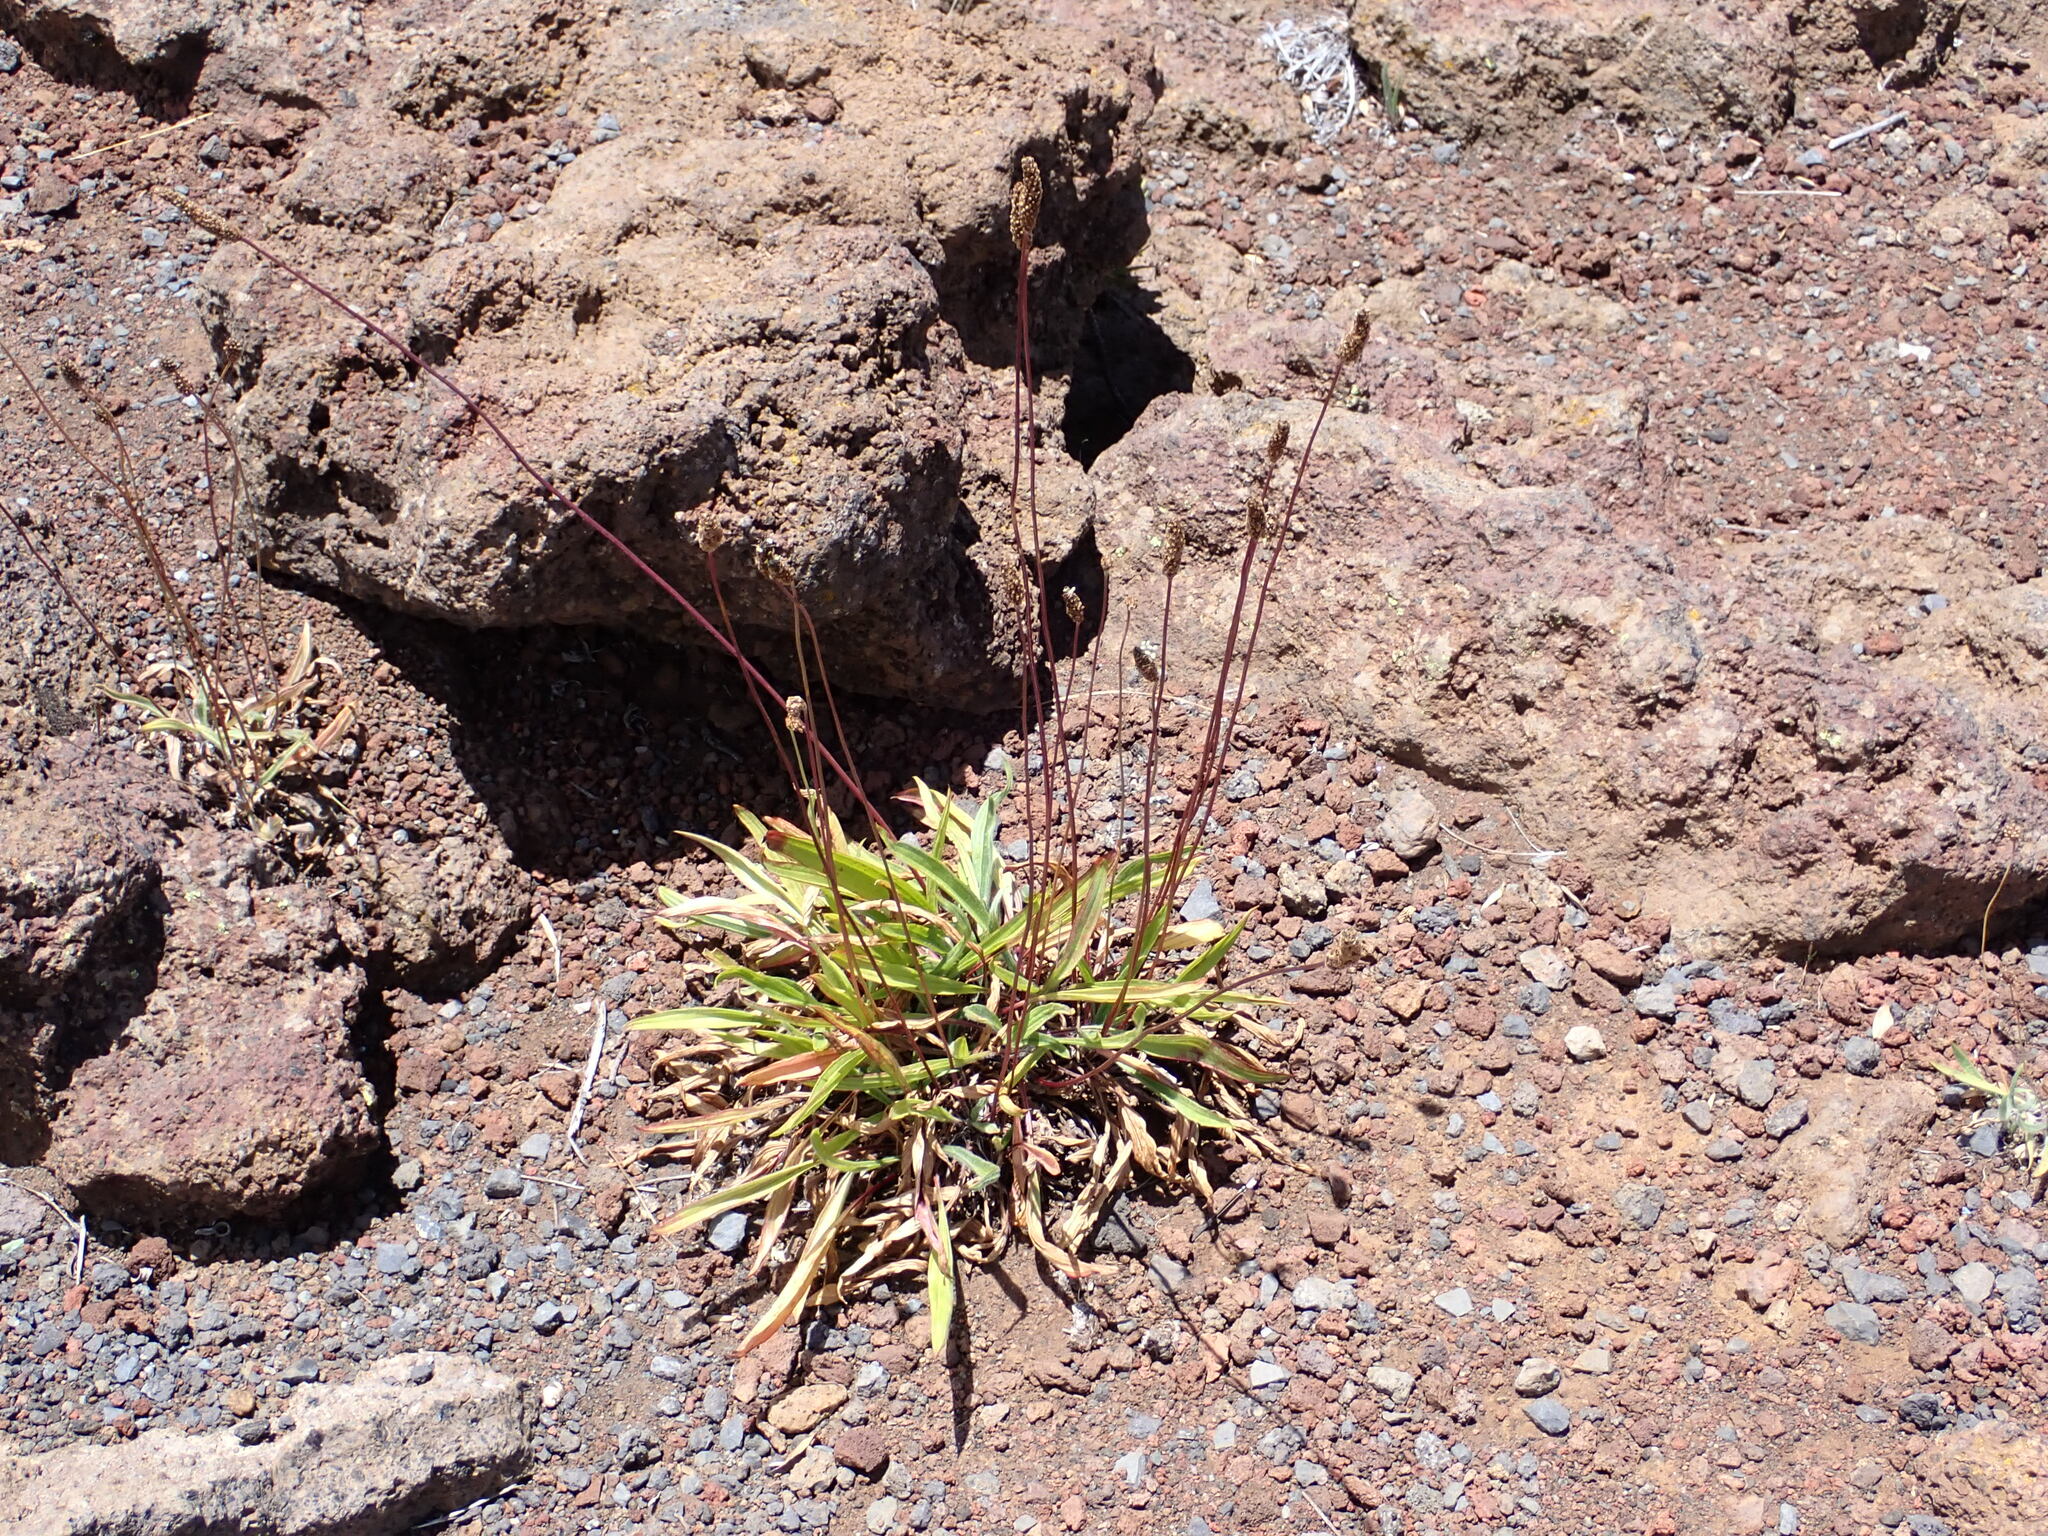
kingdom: Plantae
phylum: Tracheophyta
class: Magnoliopsida
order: Lamiales
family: Plantaginaceae
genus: Plantago
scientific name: Plantago lanceolata
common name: Ribwort plantain
